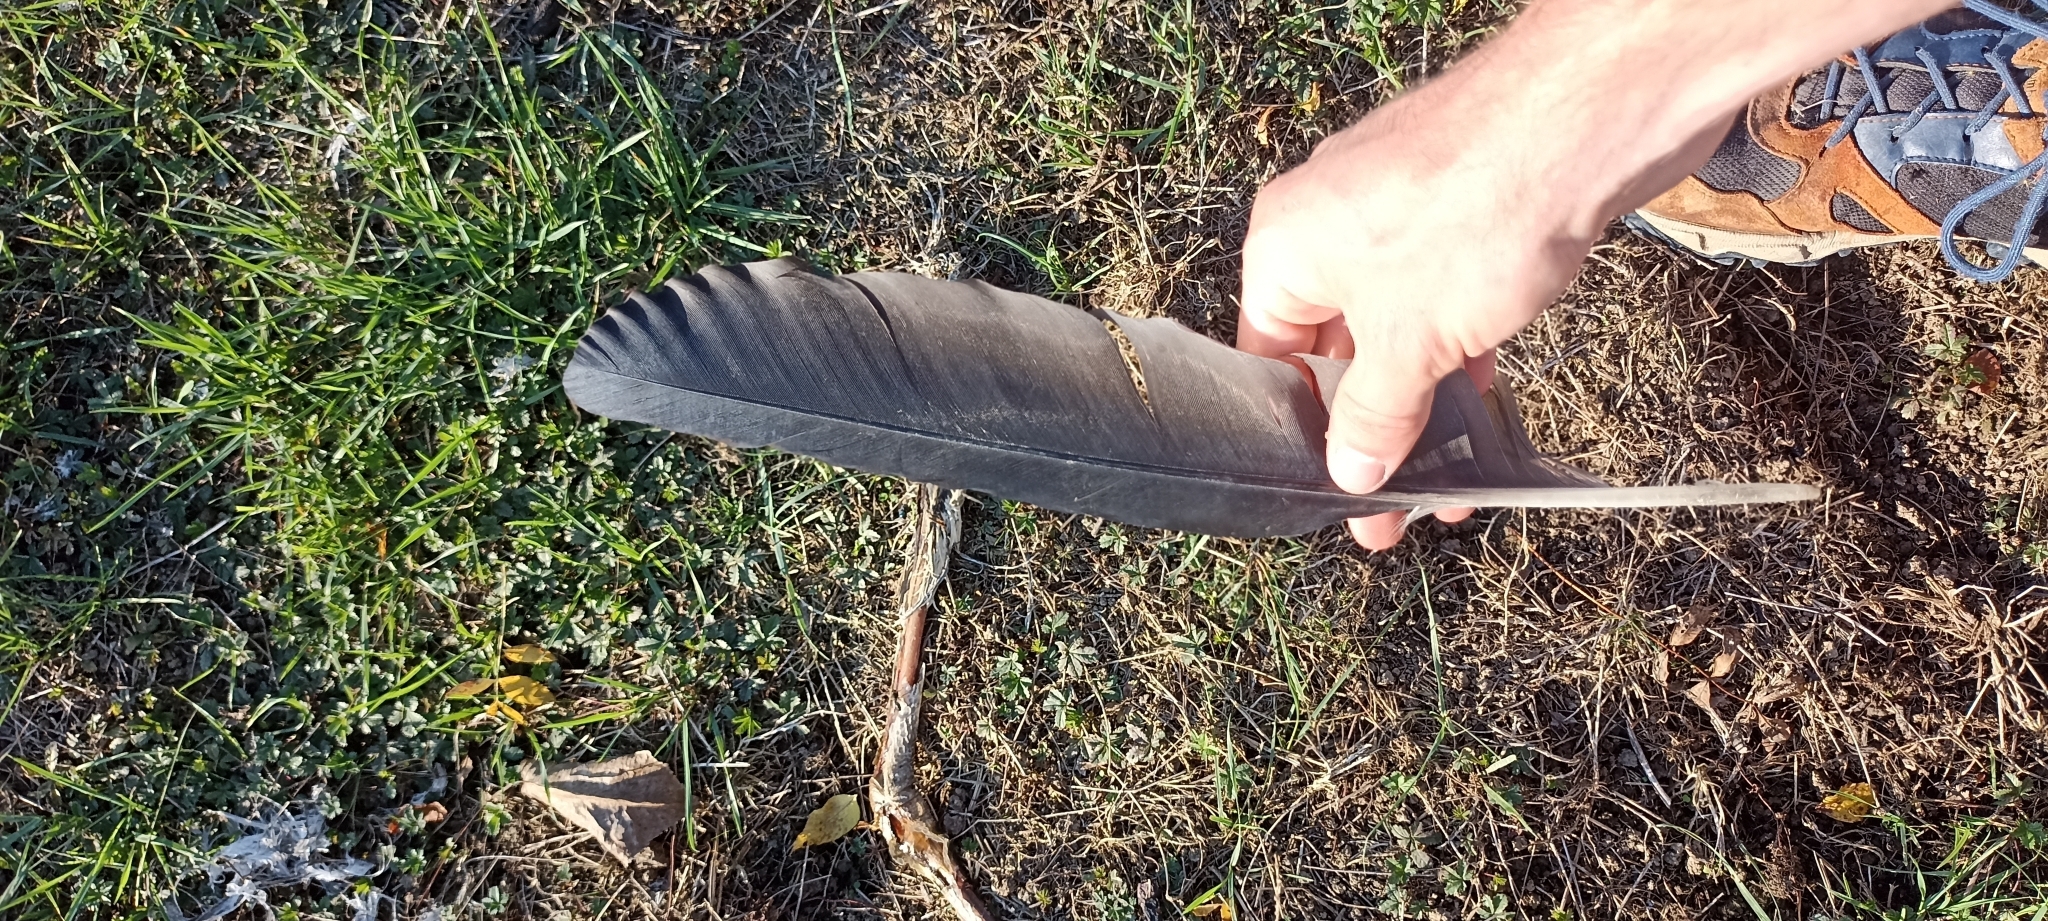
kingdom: Animalia
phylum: Chordata
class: Aves
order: Pelecaniformes
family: Ardeidae
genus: Ardea
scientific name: Ardea cinerea
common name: Grey heron
